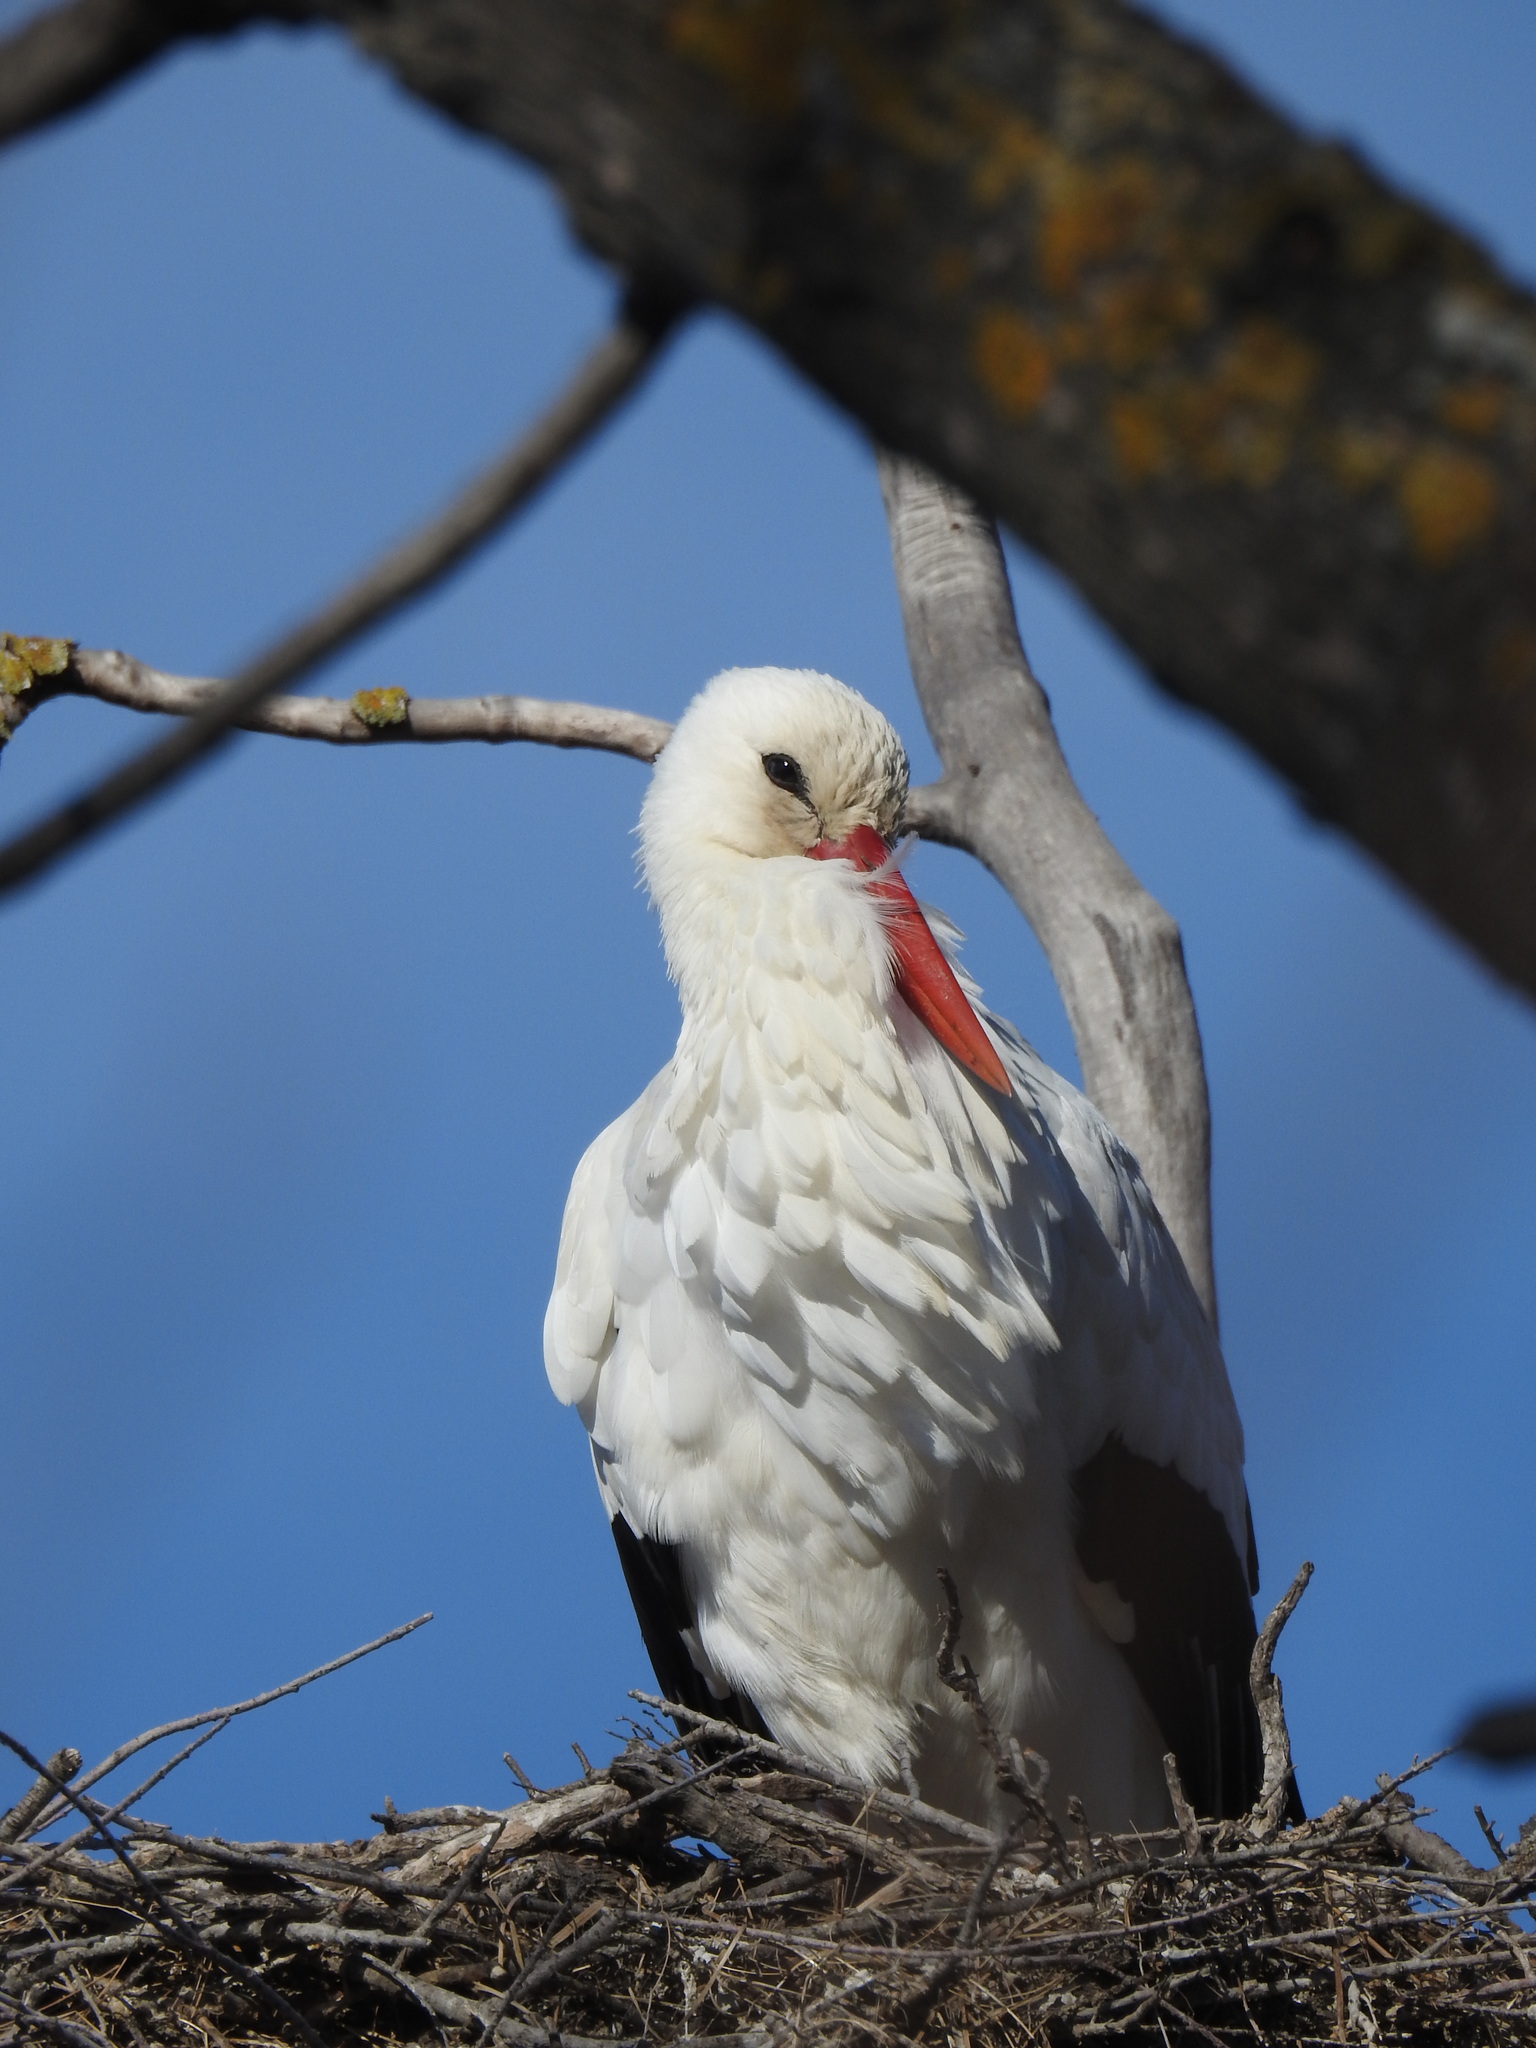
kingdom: Animalia
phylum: Chordata
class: Aves
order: Ciconiiformes
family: Ciconiidae
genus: Ciconia
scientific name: Ciconia ciconia
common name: White stork
